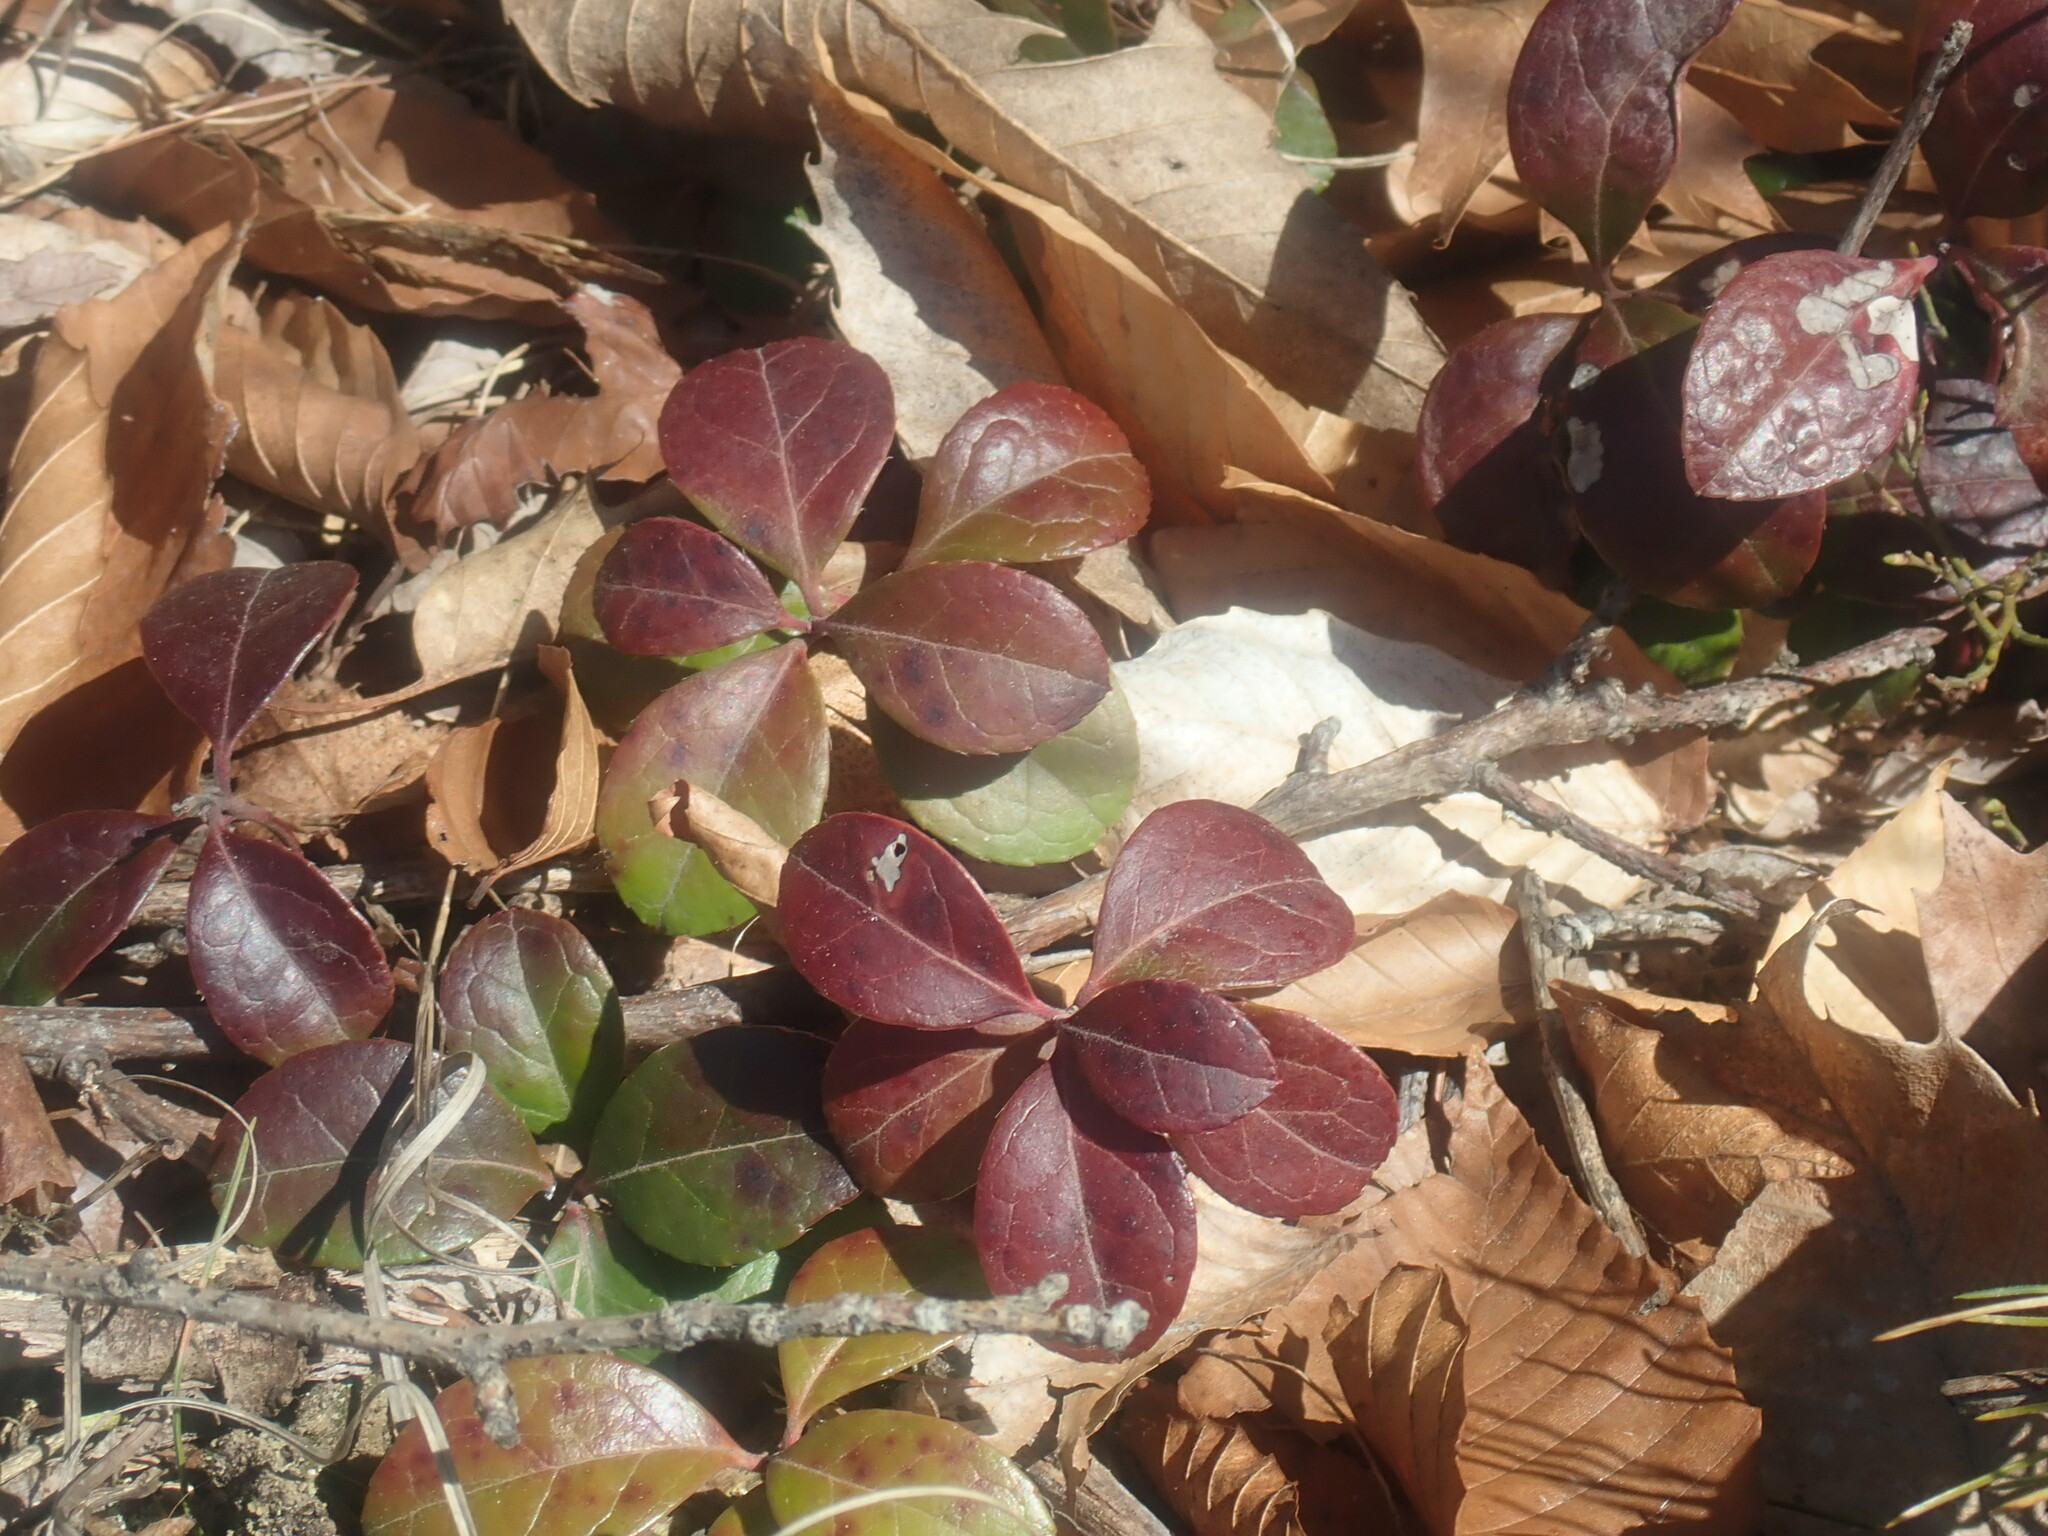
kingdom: Plantae
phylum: Tracheophyta
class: Magnoliopsida
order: Ericales
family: Ericaceae
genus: Gaultheria
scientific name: Gaultheria procumbens
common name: Checkerberry
